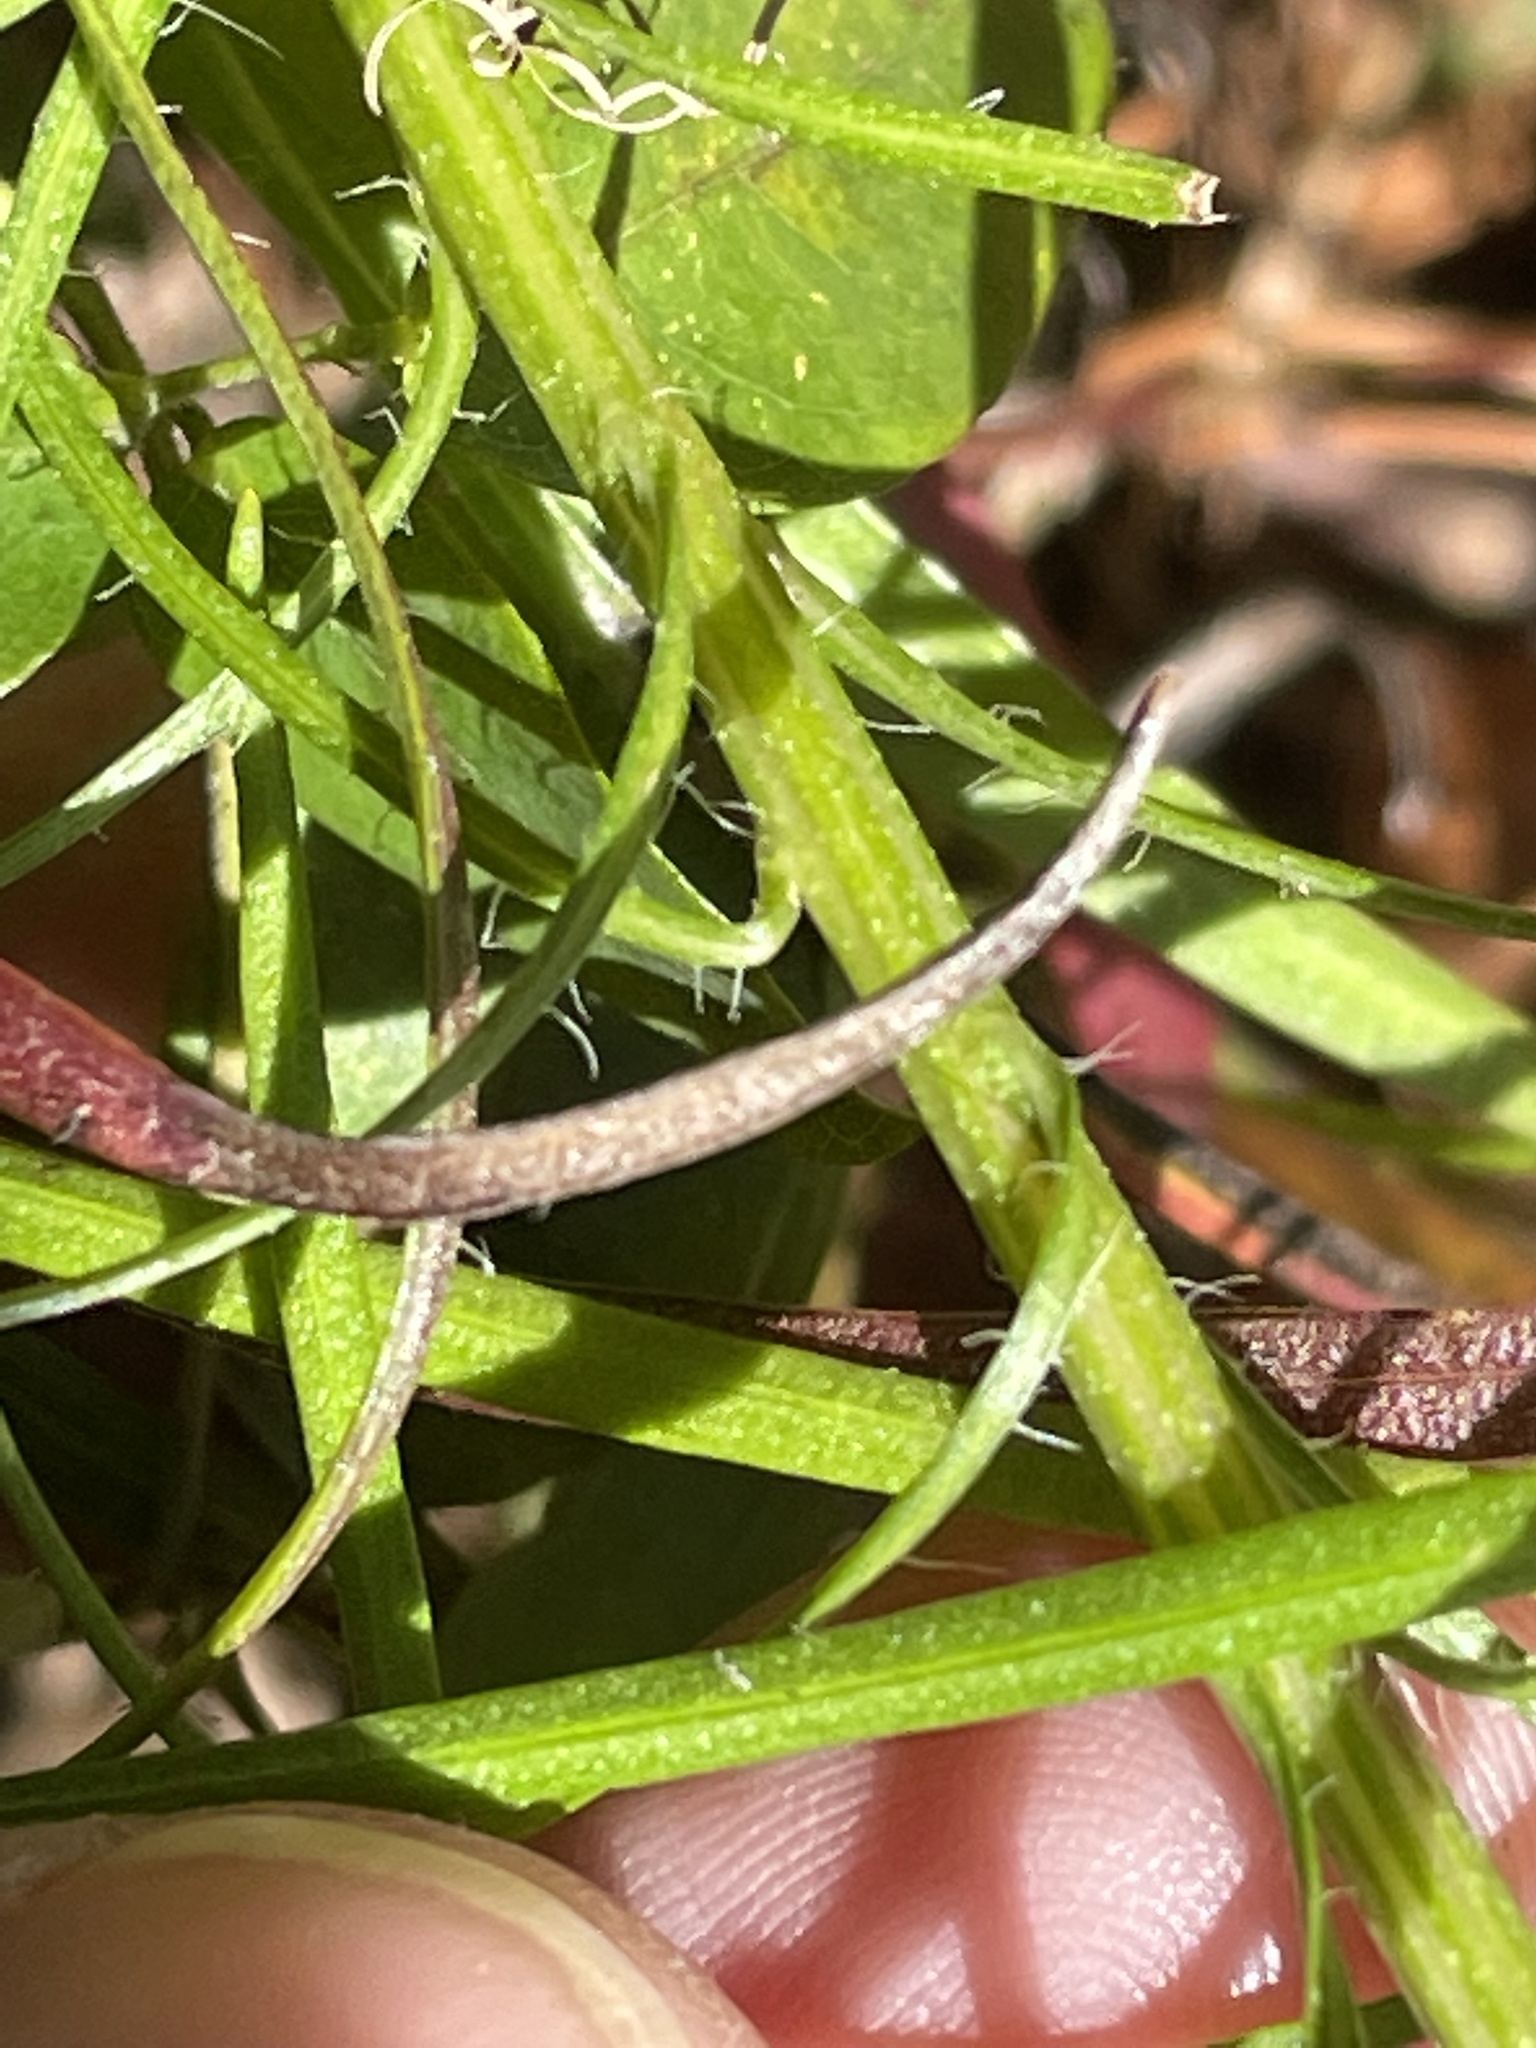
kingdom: Plantae
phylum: Tracheophyta
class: Magnoliopsida
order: Asterales
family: Asteraceae
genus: Liatris
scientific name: Liatris pilosa
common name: Grass-leaf gayfeather
